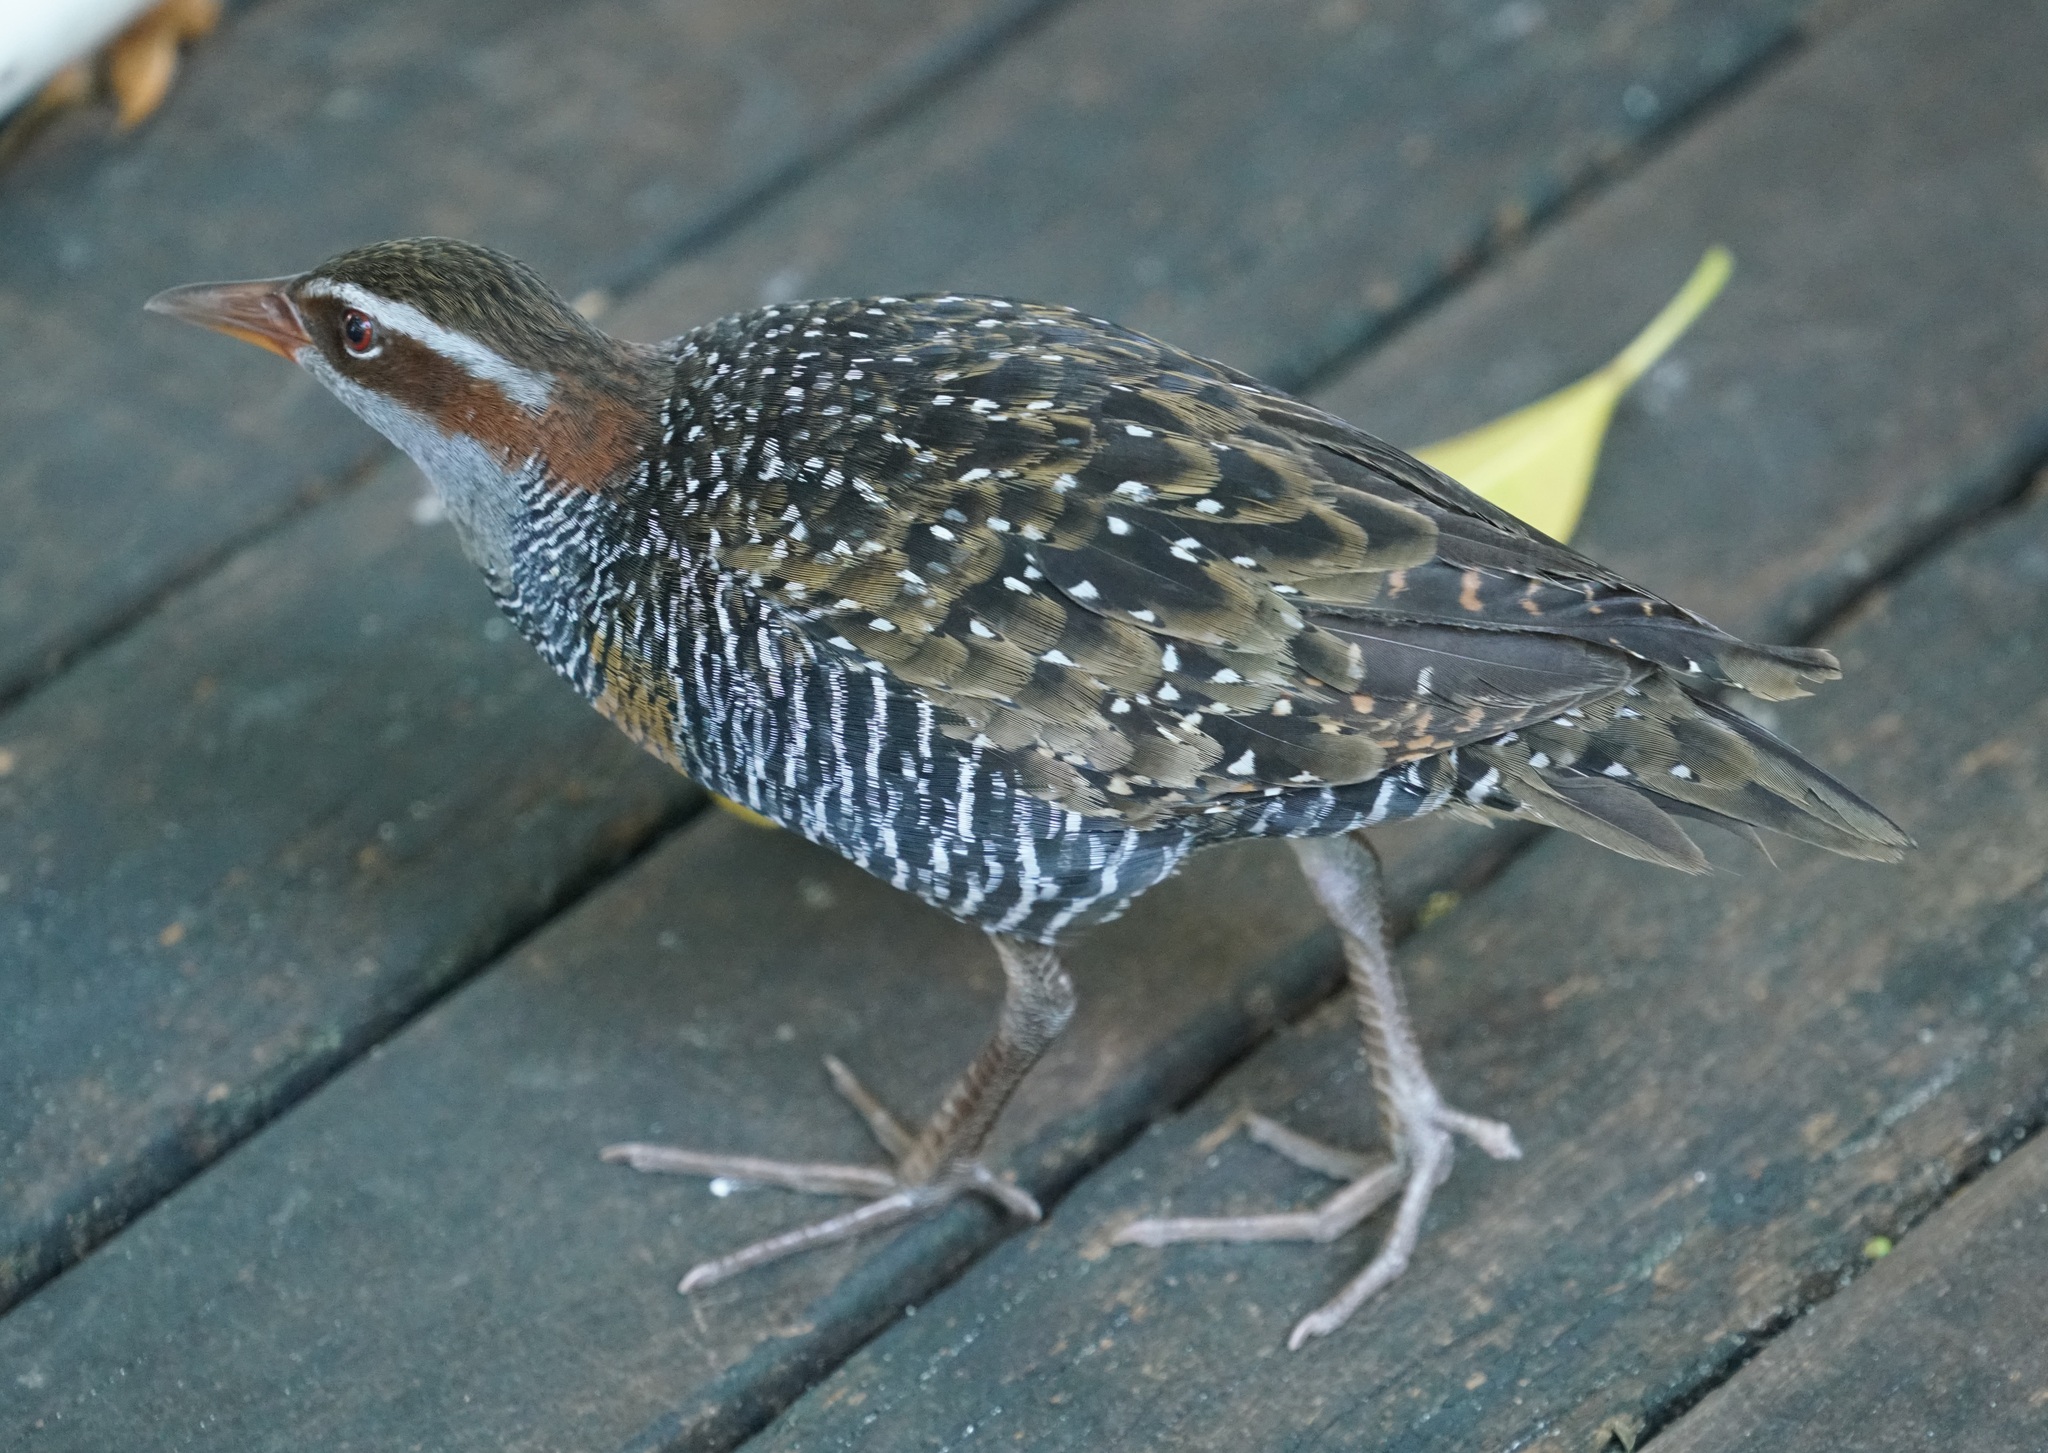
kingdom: Animalia
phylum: Chordata
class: Aves
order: Gruiformes
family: Rallidae
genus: Gallirallus
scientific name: Gallirallus philippensis
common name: Buff-banded rail
